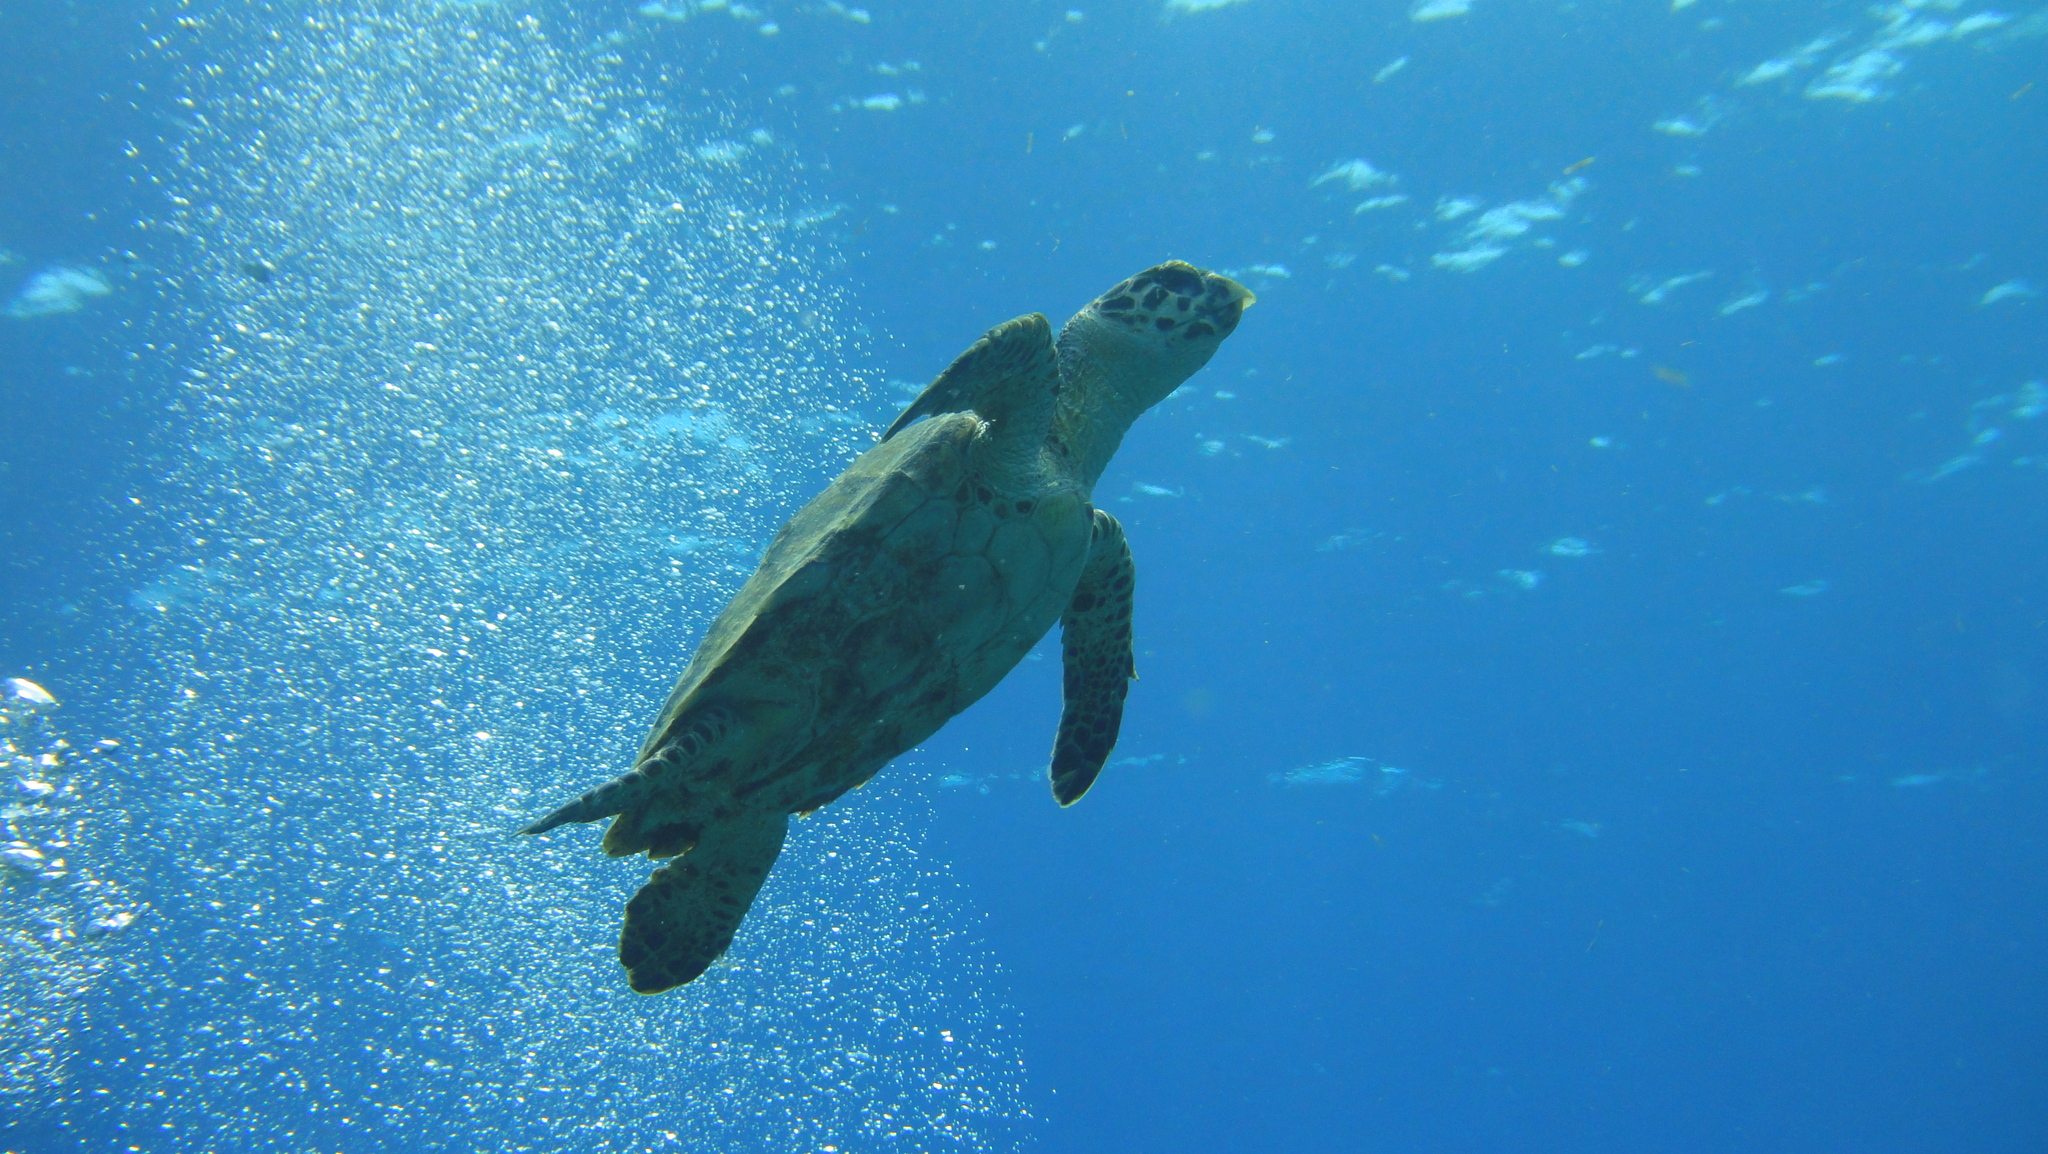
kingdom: Animalia
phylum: Chordata
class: Testudines
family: Cheloniidae
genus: Eretmochelys
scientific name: Eretmochelys imbricata
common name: Hawksbill turtle
